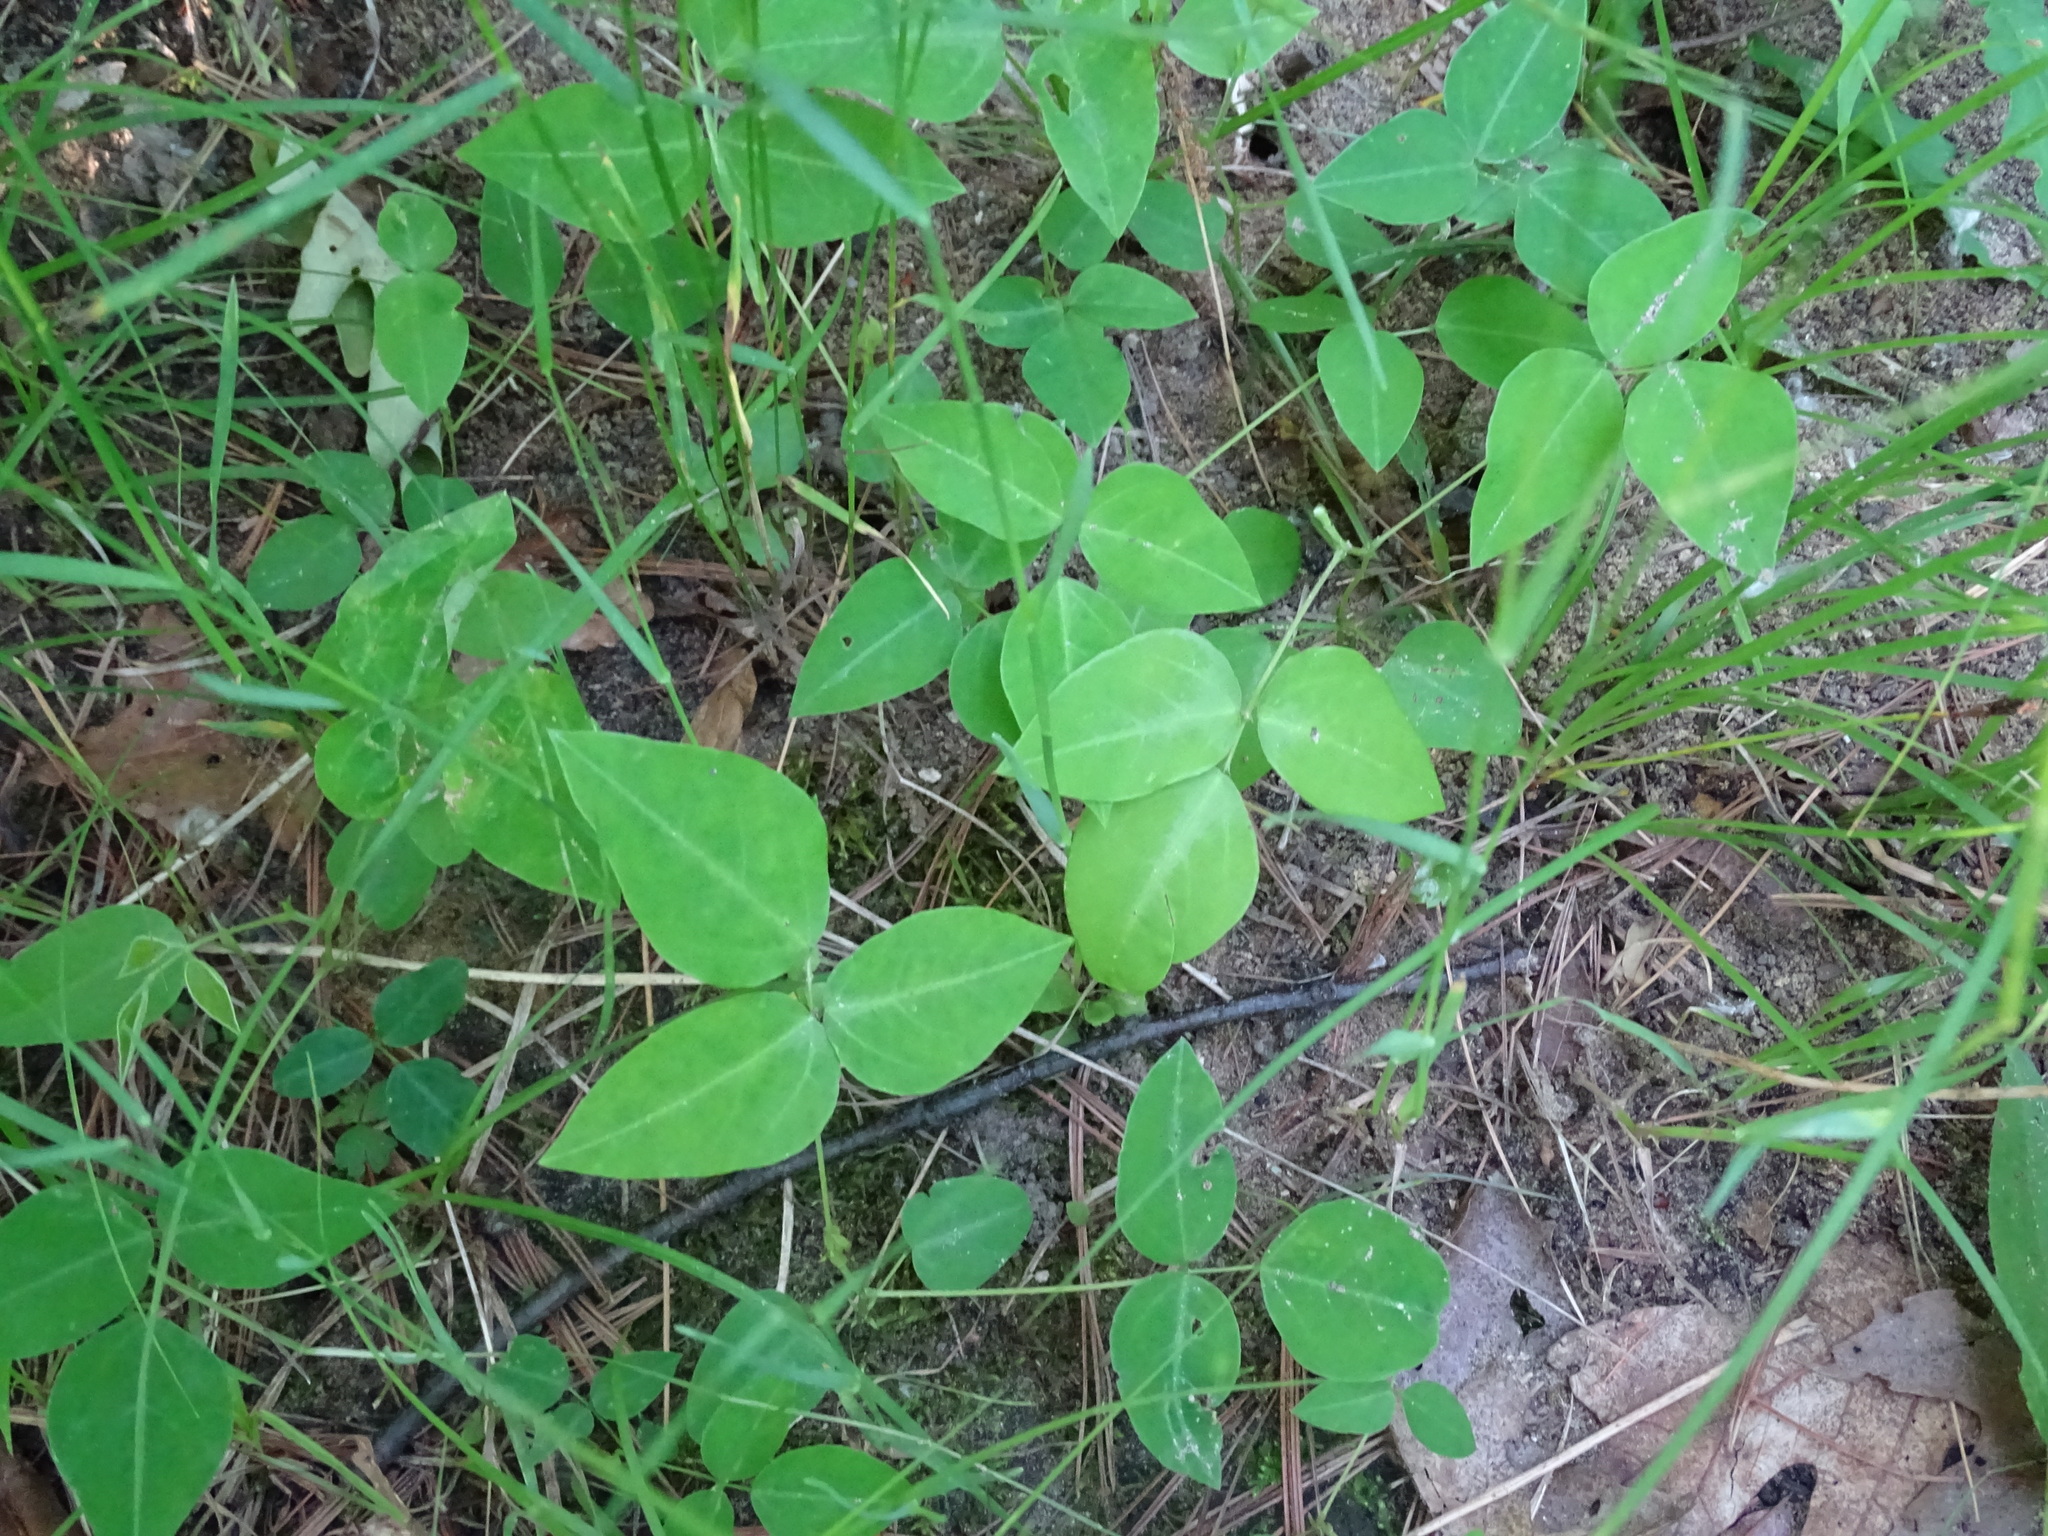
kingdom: Plantae
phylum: Tracheophyta
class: Magnoliopsida
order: Fabales
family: Fabaceae
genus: Amphicarpaea
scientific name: Amphicarpaea bracteata
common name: American hog peanut
